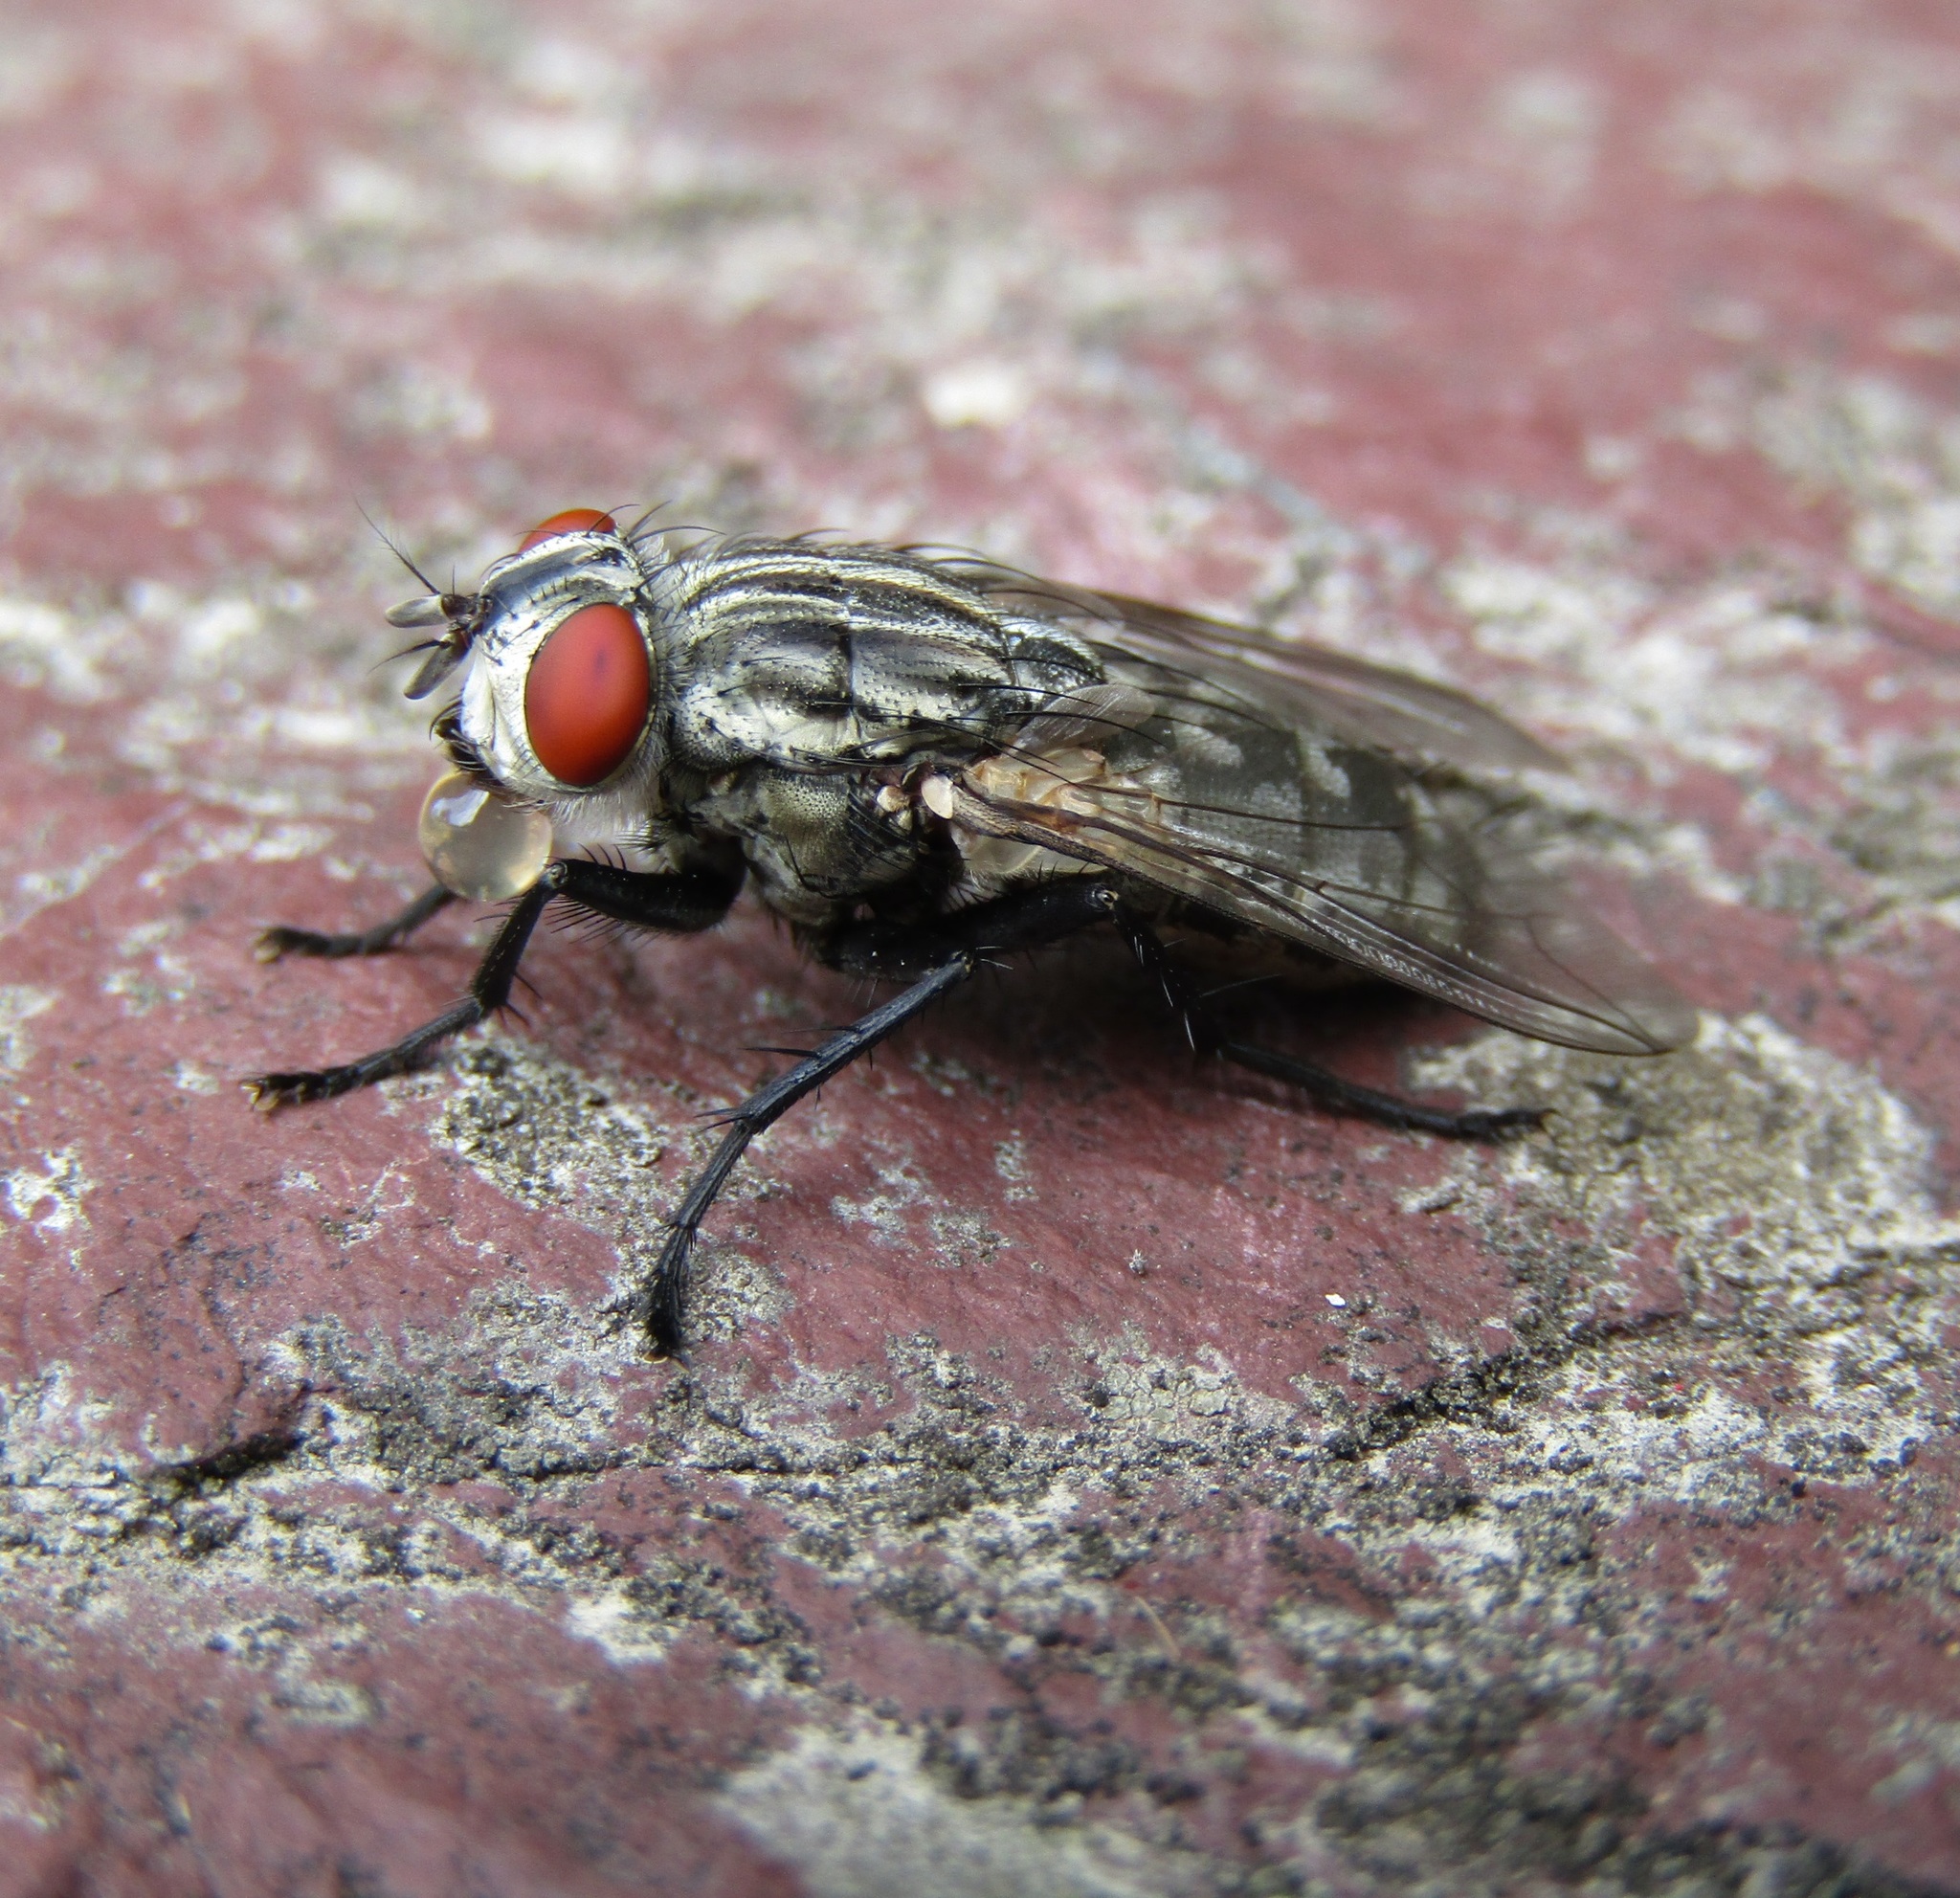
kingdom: Animalia
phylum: Arthropoda
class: Insecta
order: Diptera
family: Sarcophagidae
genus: Sarcophaga
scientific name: Sarcophaga crassipalpis
